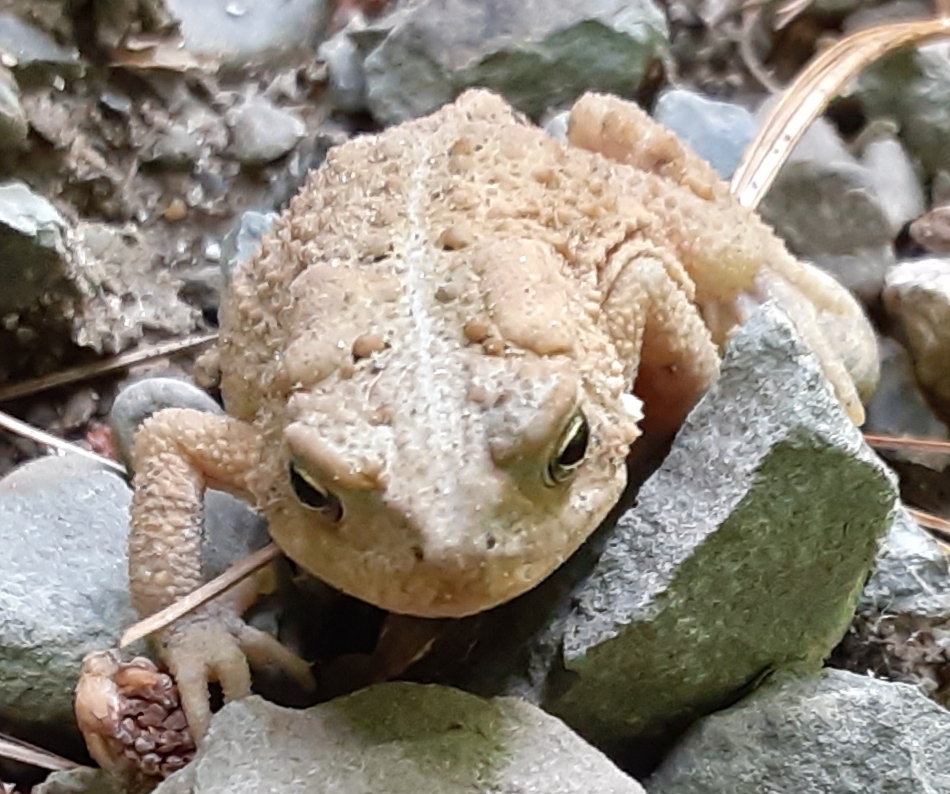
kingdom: Animalia
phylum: Chordata
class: Amphibia
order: Anura
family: Bufonidae
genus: Anaxyrus
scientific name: Anaxyrus americanus
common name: American toad
